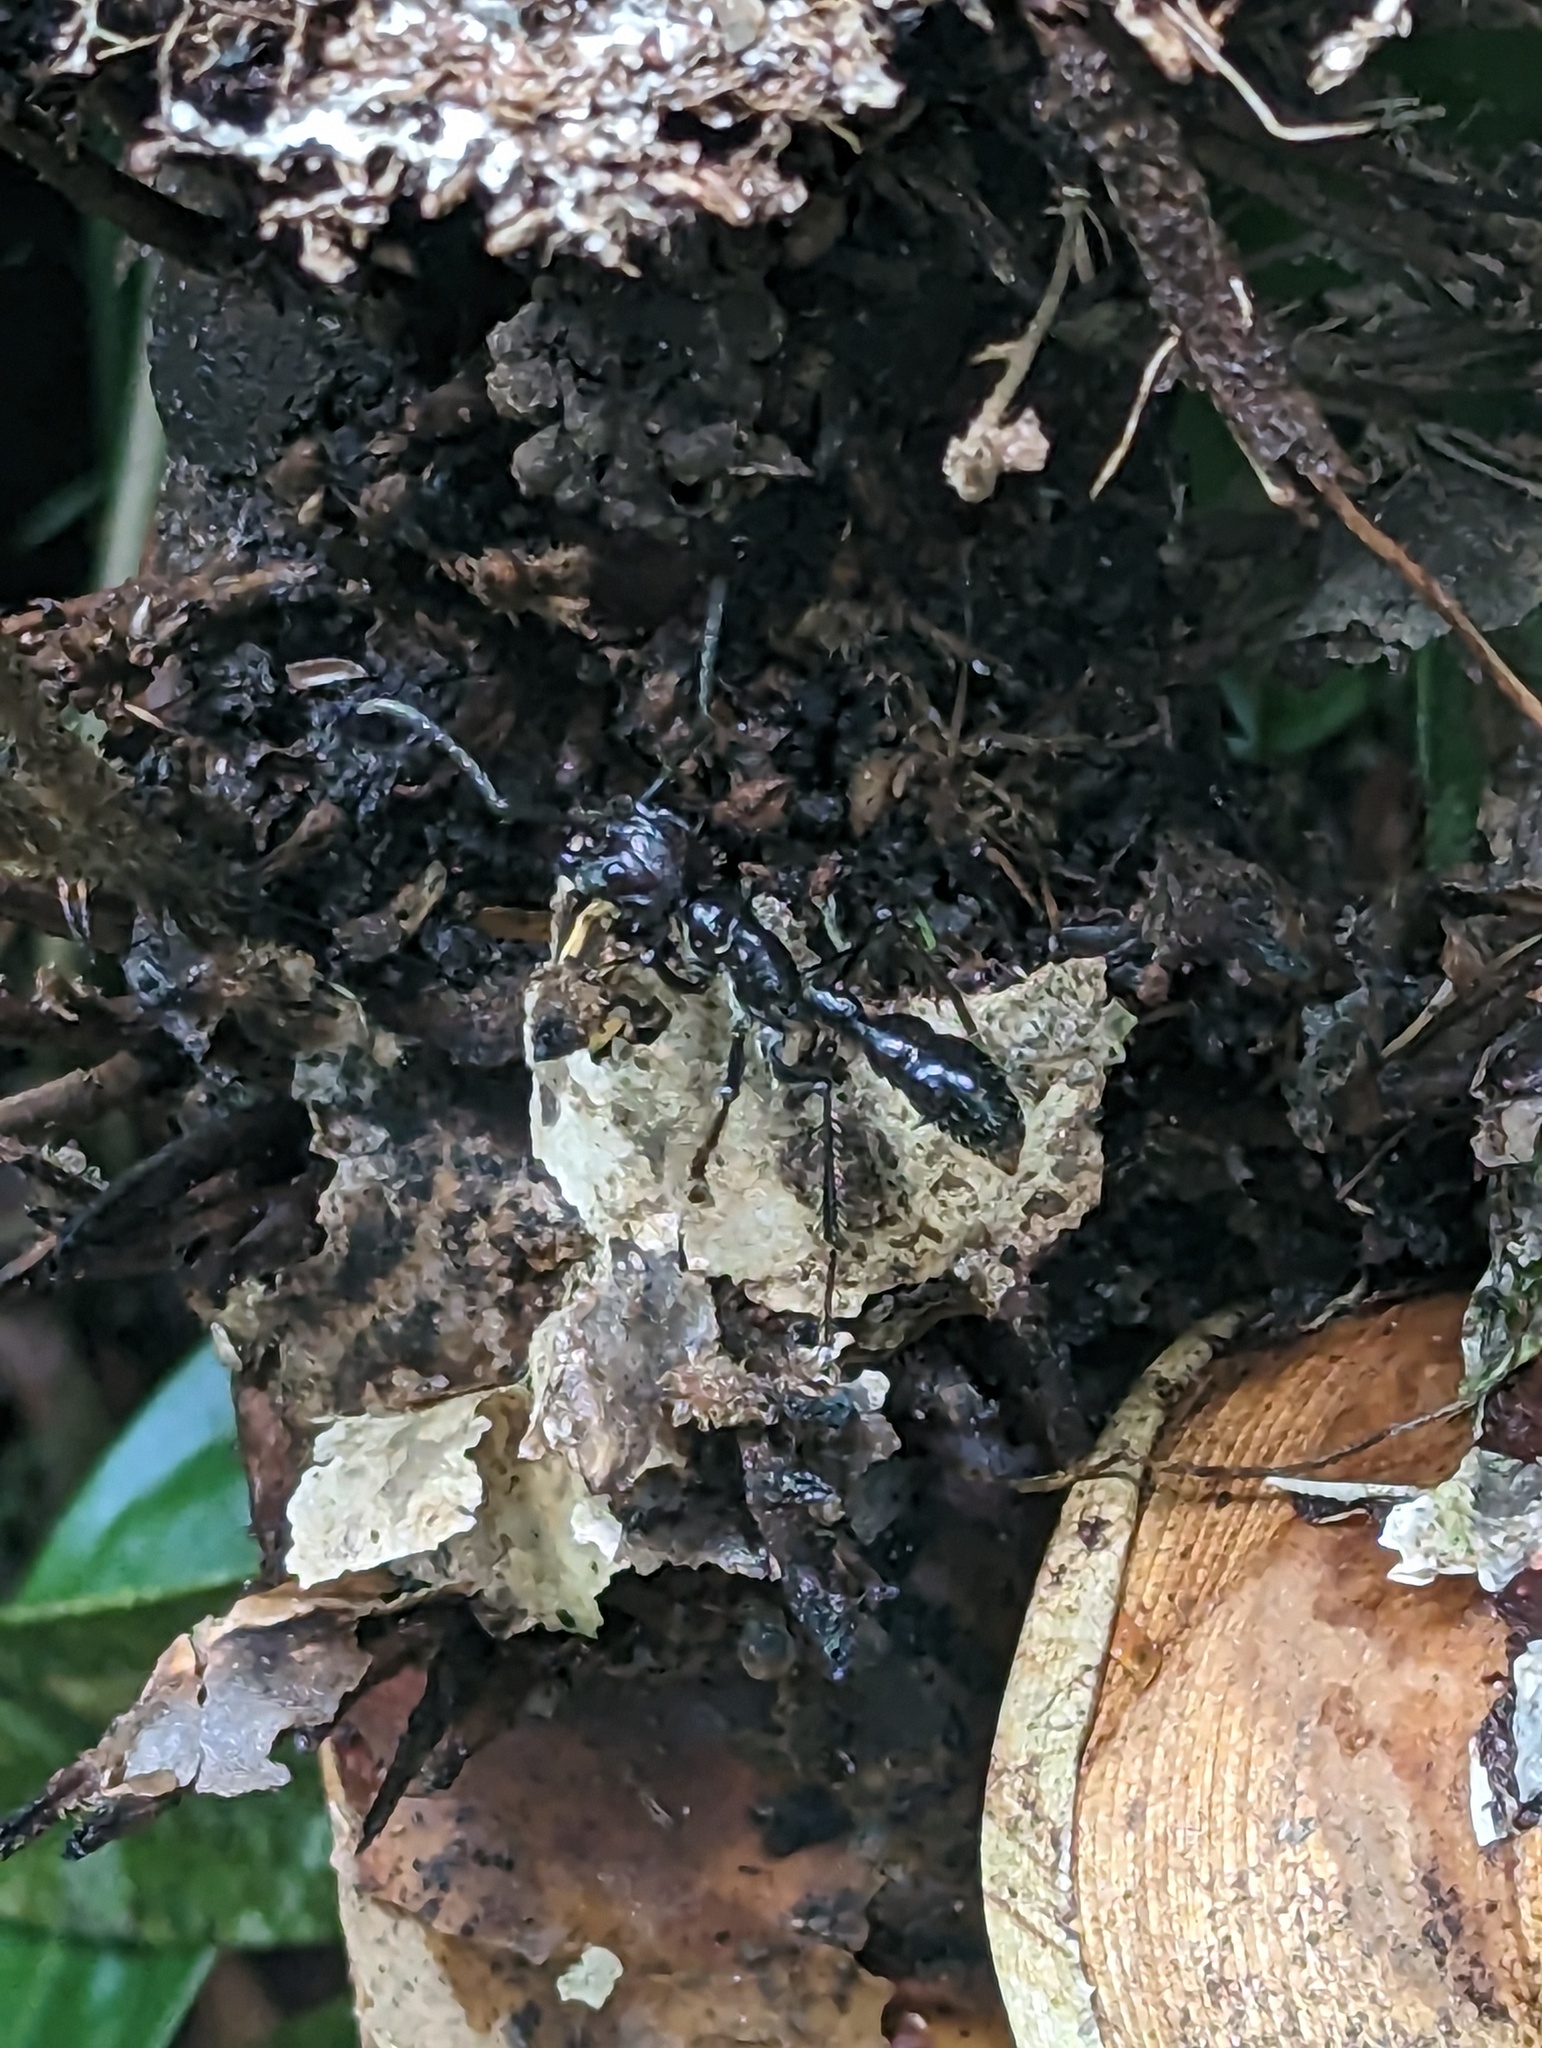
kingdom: Animalia
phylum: Arthropoda
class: Insecta
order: Hymenoptera
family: Formicidae
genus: Paraponera
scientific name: Paraponera clavata
